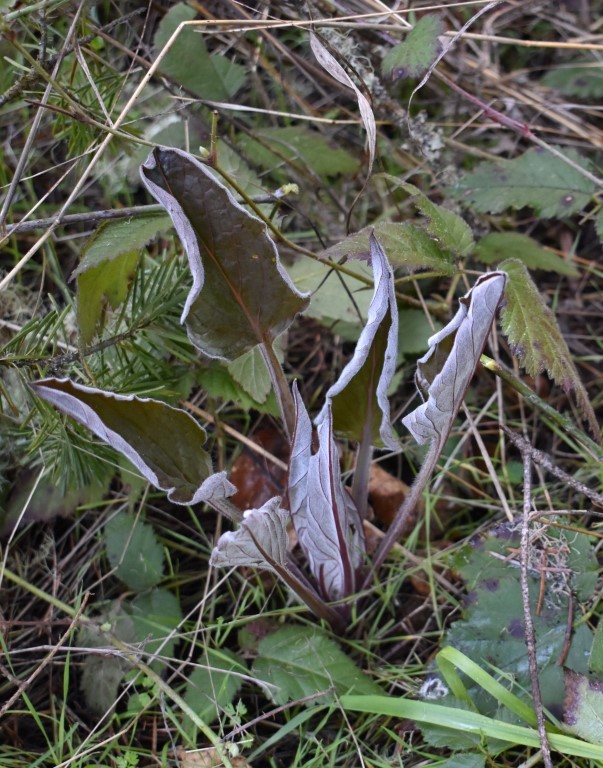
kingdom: Plantae
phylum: Tracheophyta
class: Magnoliopsida
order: Boraginales
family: Boraginaceae
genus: Adelinia
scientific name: Adelinia grande
